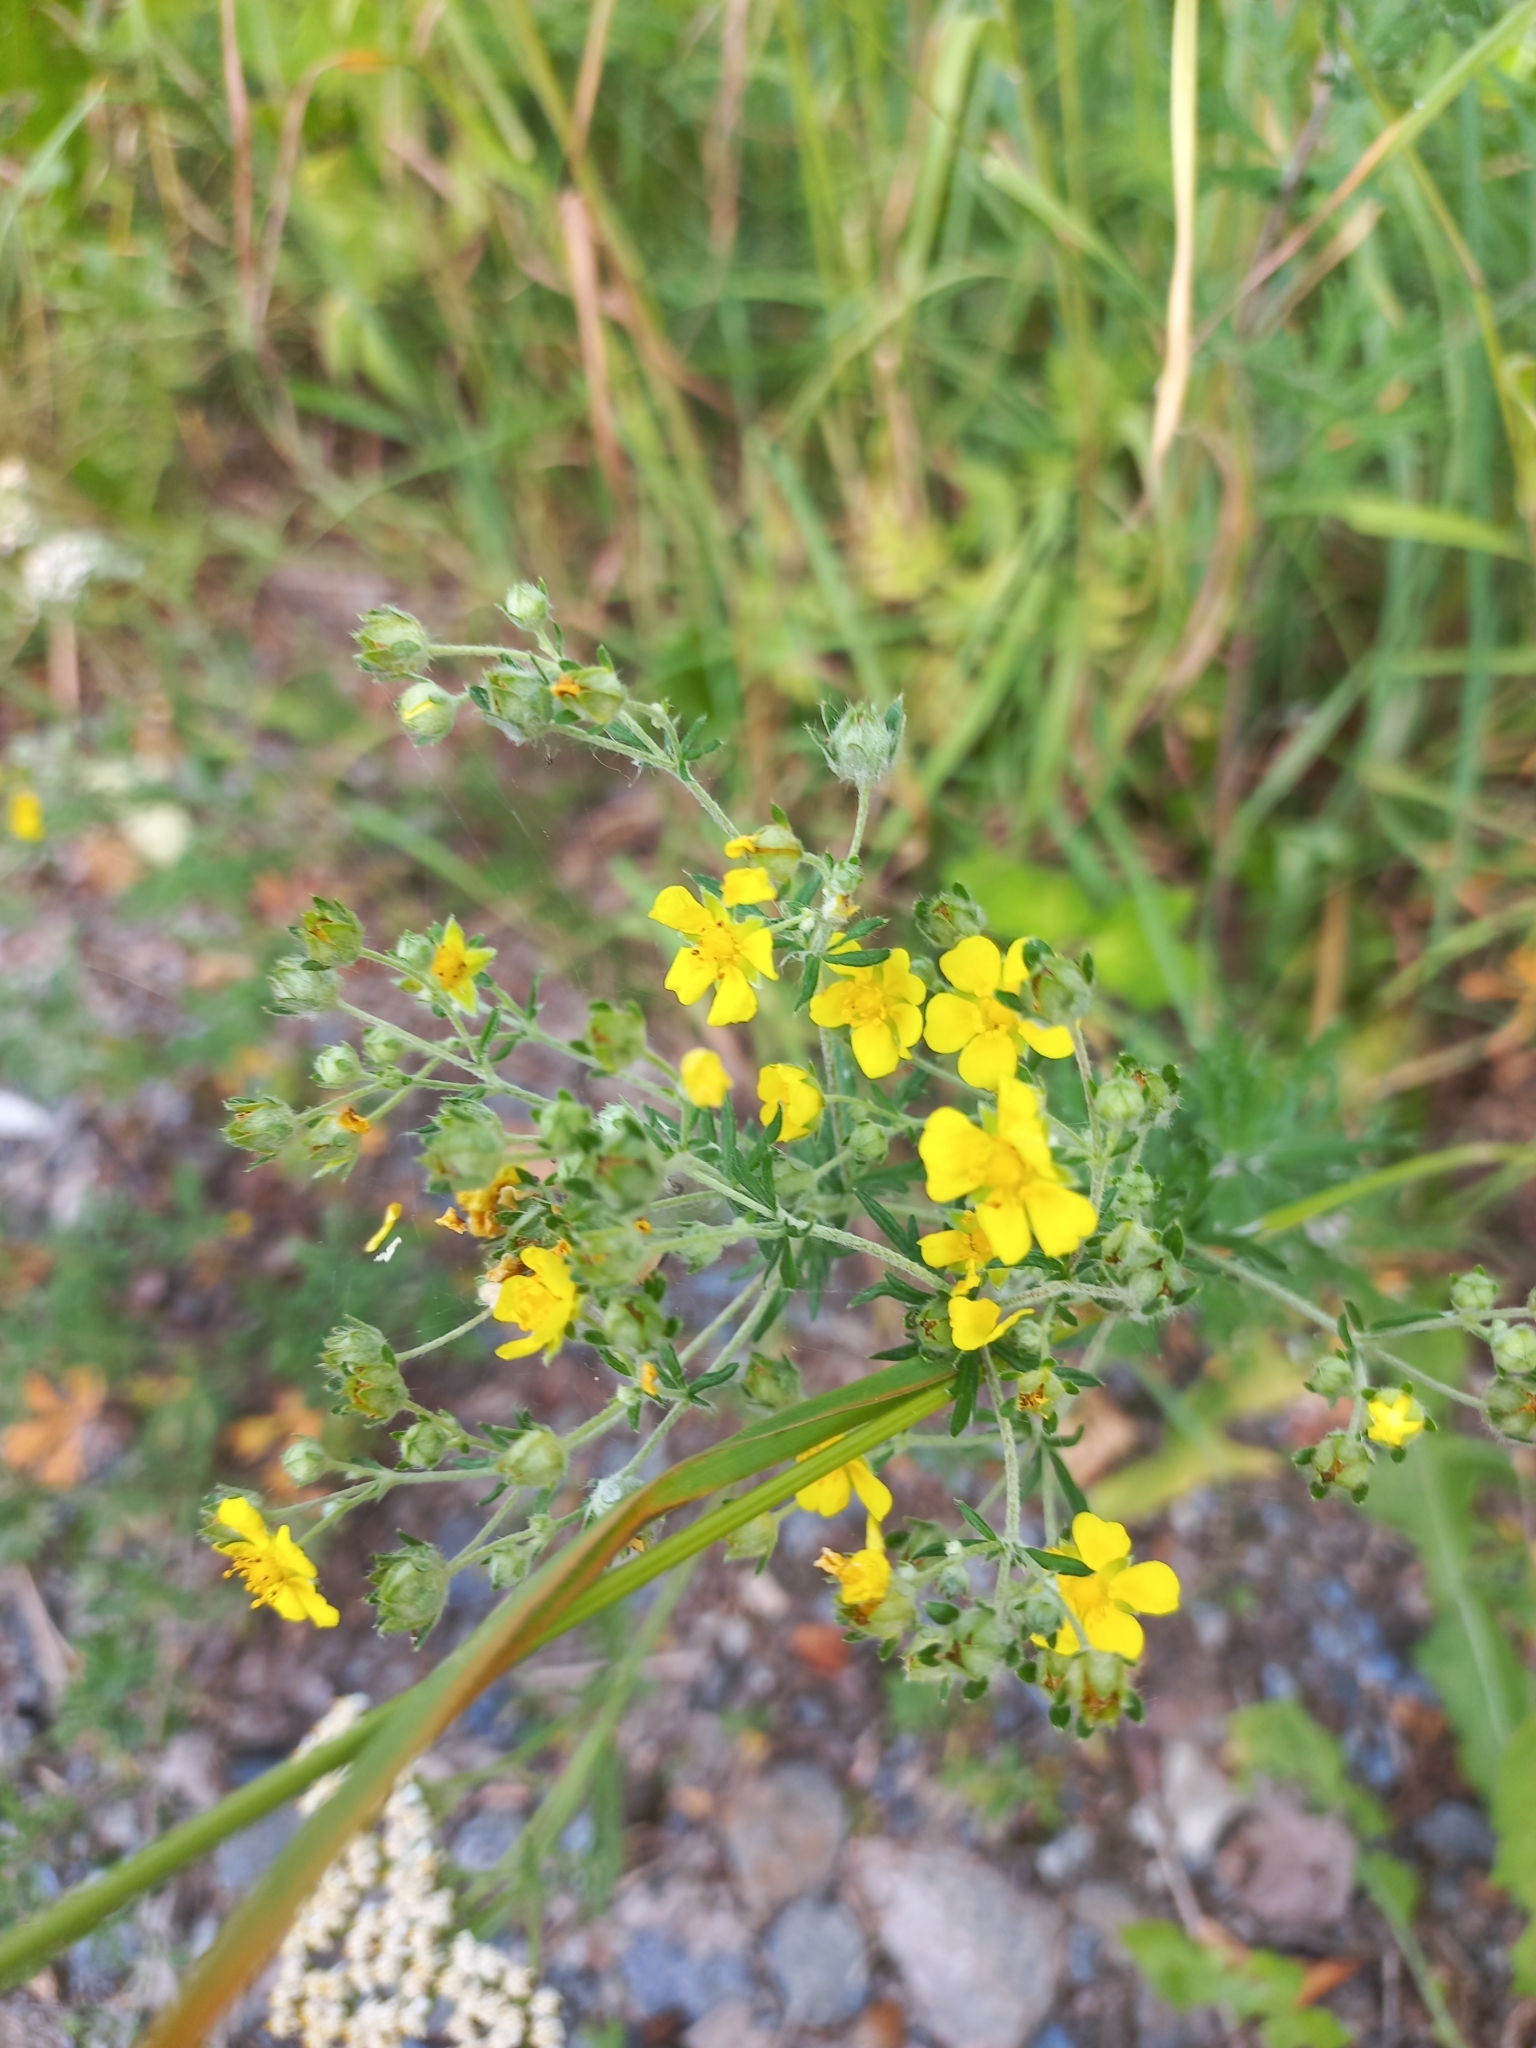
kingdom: Plantae
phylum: Tracheophyta
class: Magnoliopsida
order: Rosales
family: Rosaceae
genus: Potentilla
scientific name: Potentilla argentea
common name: Hoary cinquefoil
